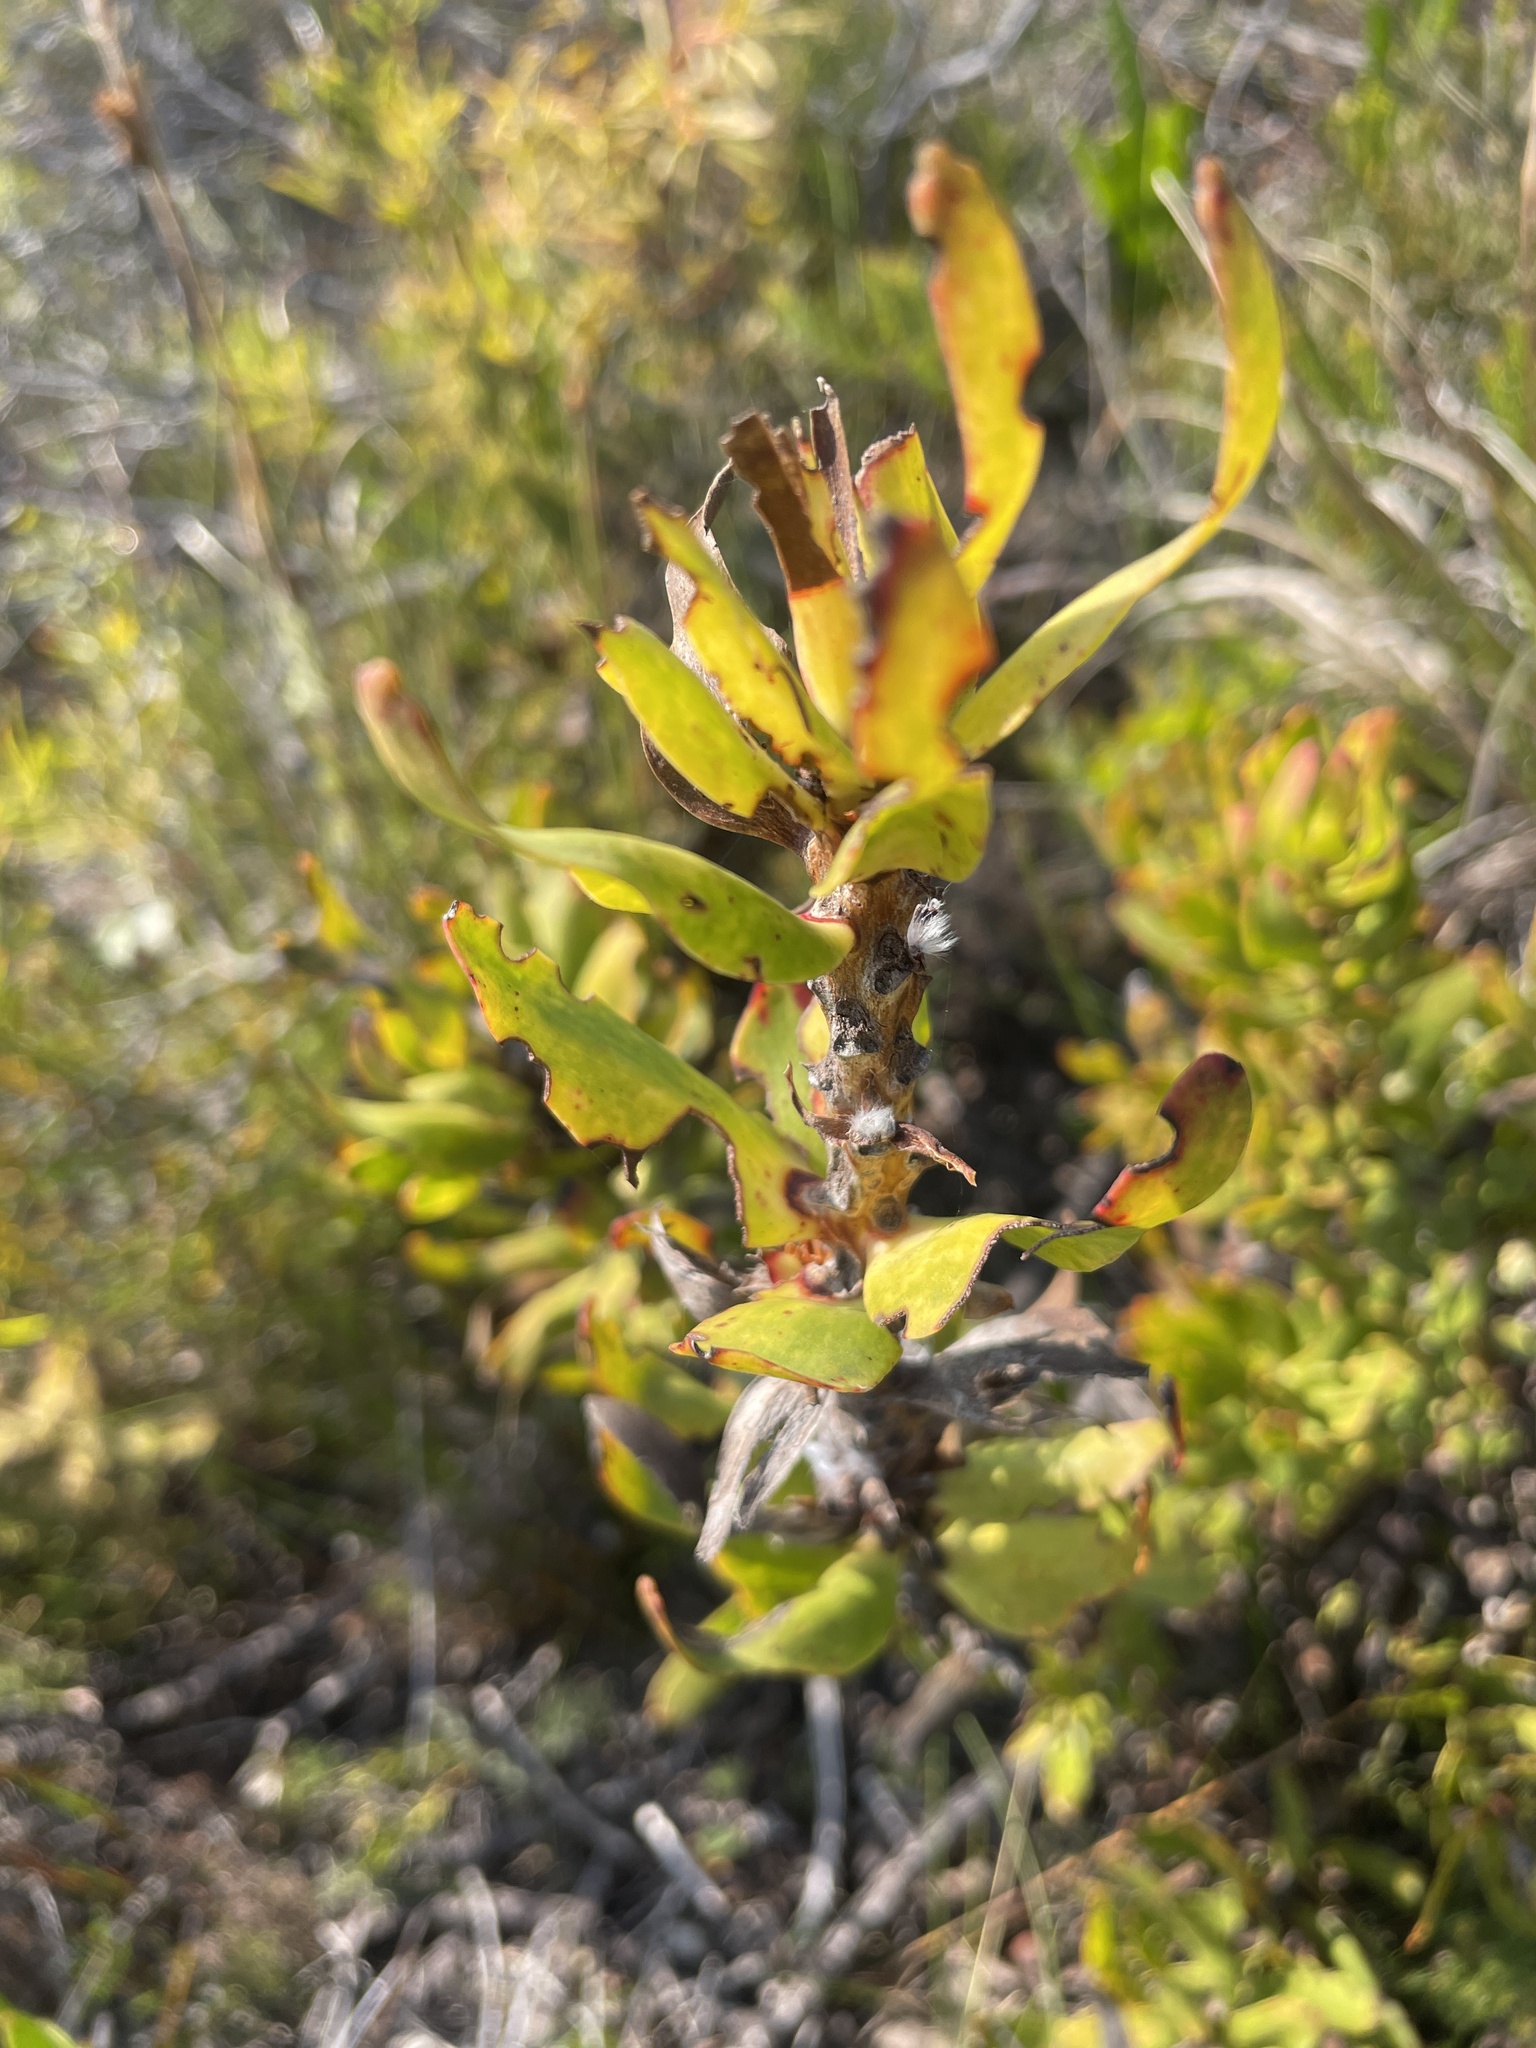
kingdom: Plantae
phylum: Tracheophyta
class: Magnoliopsida
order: Proteales
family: Proteaceae
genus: Leucadendron
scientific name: Leucadendron xanthoconus
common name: Sickle-leaf conebush
